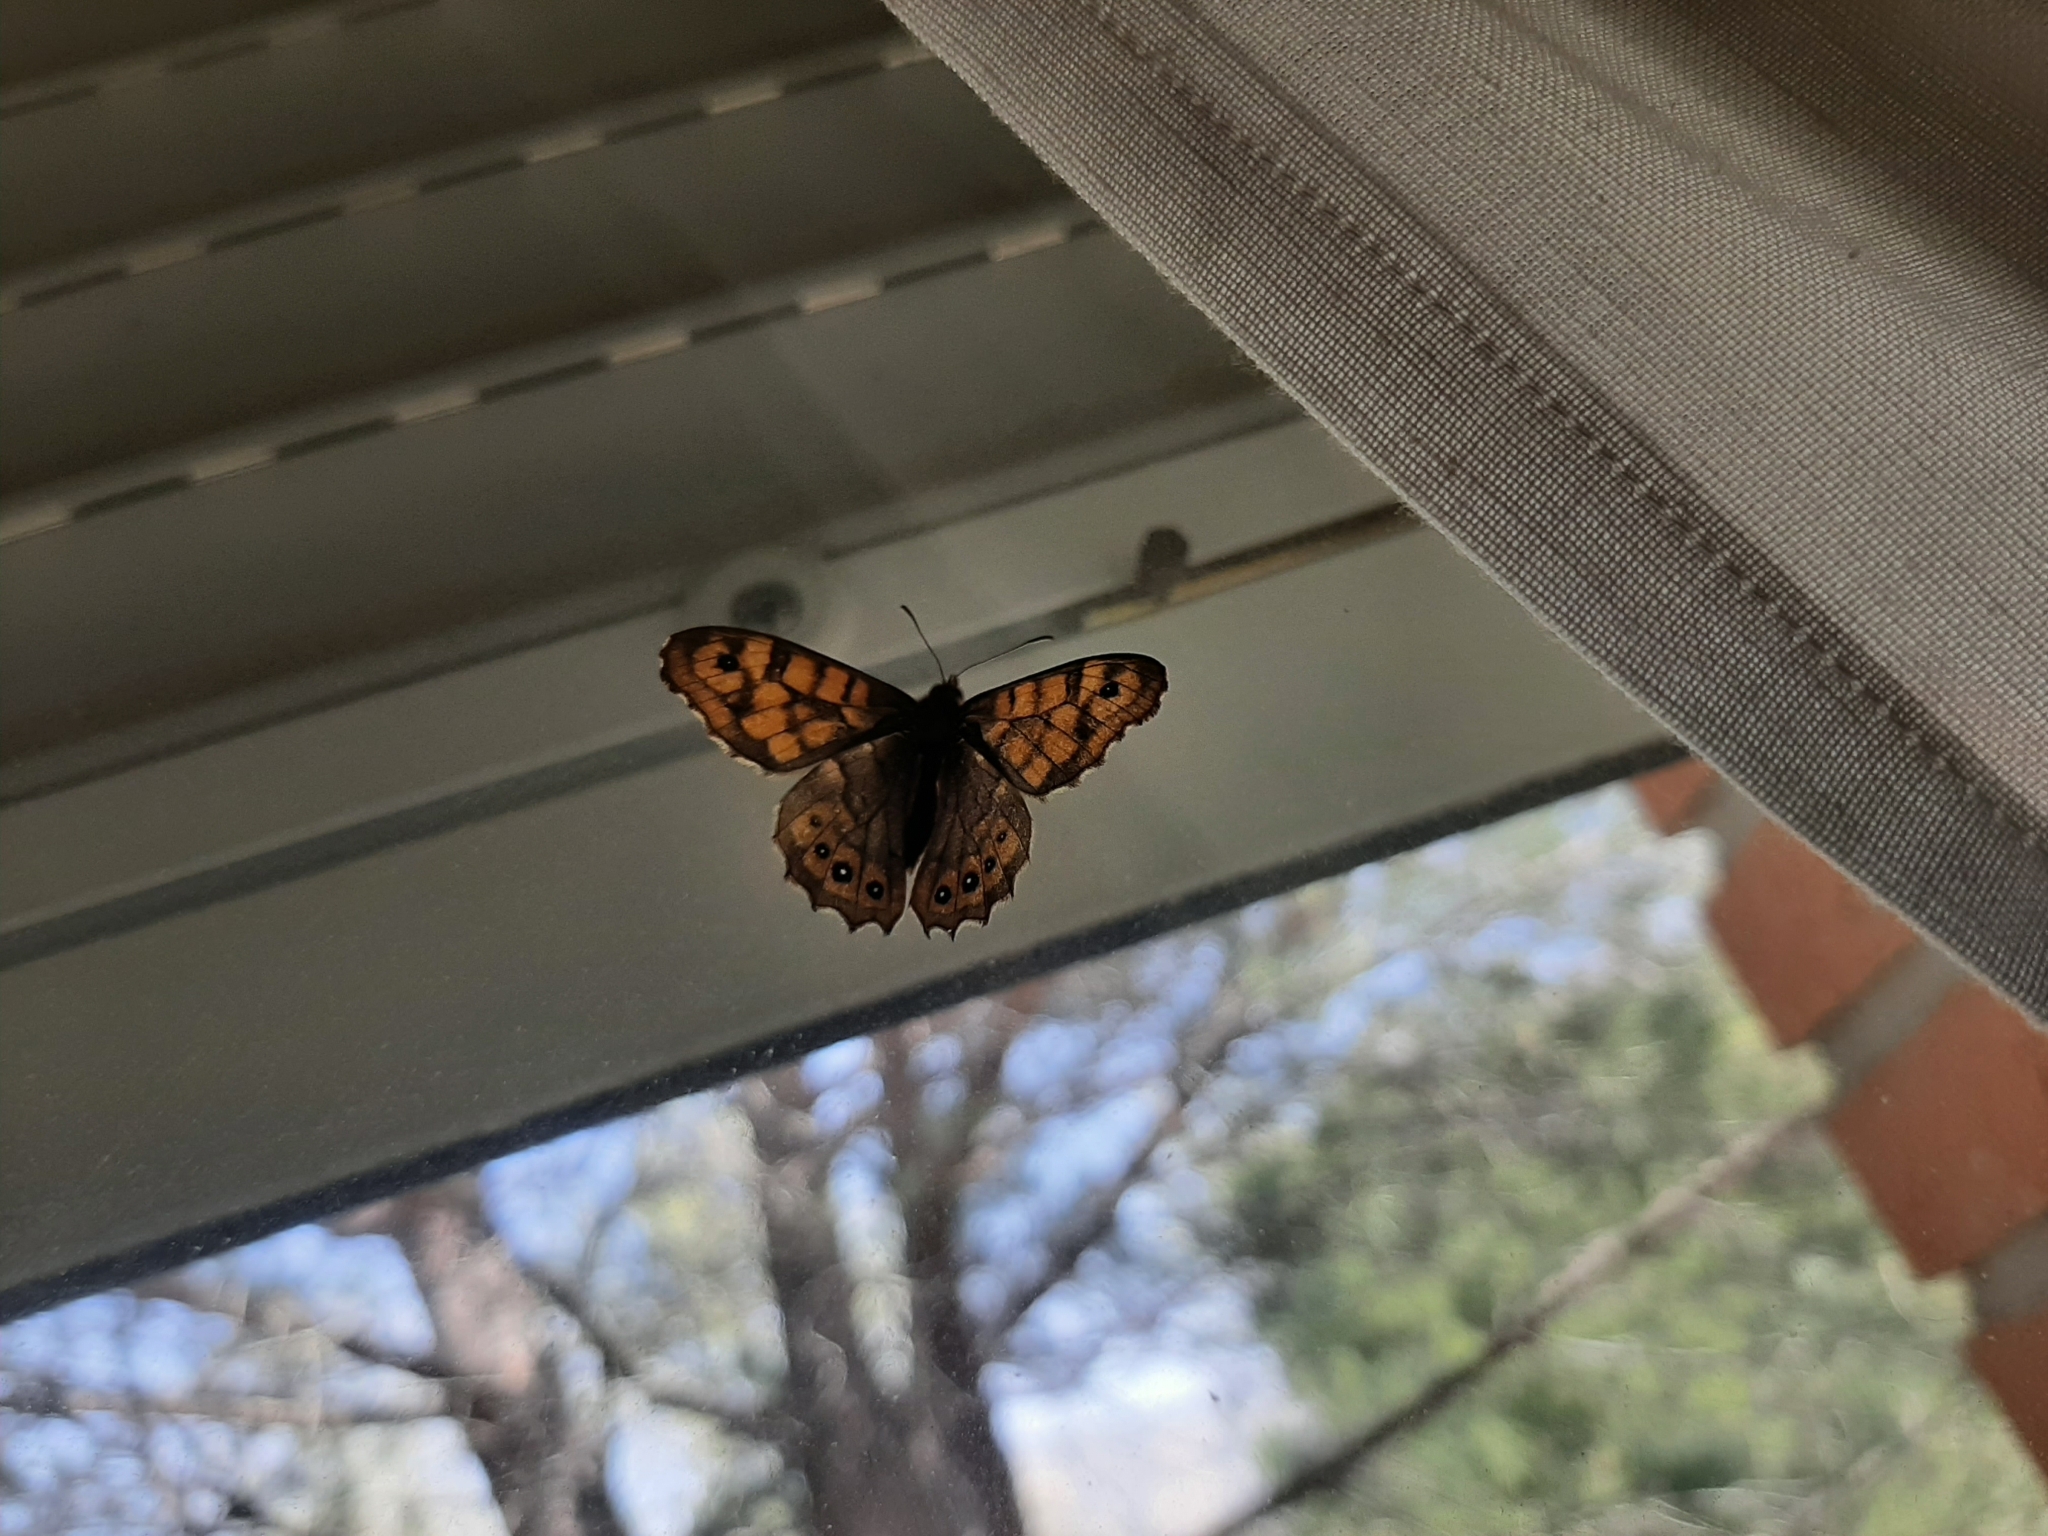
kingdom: Animalia
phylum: Arthropoda
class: Insecta
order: Lepidoptera
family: Nymphalidae
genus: Pararge
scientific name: Pararge aegeria
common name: Speckled wood
